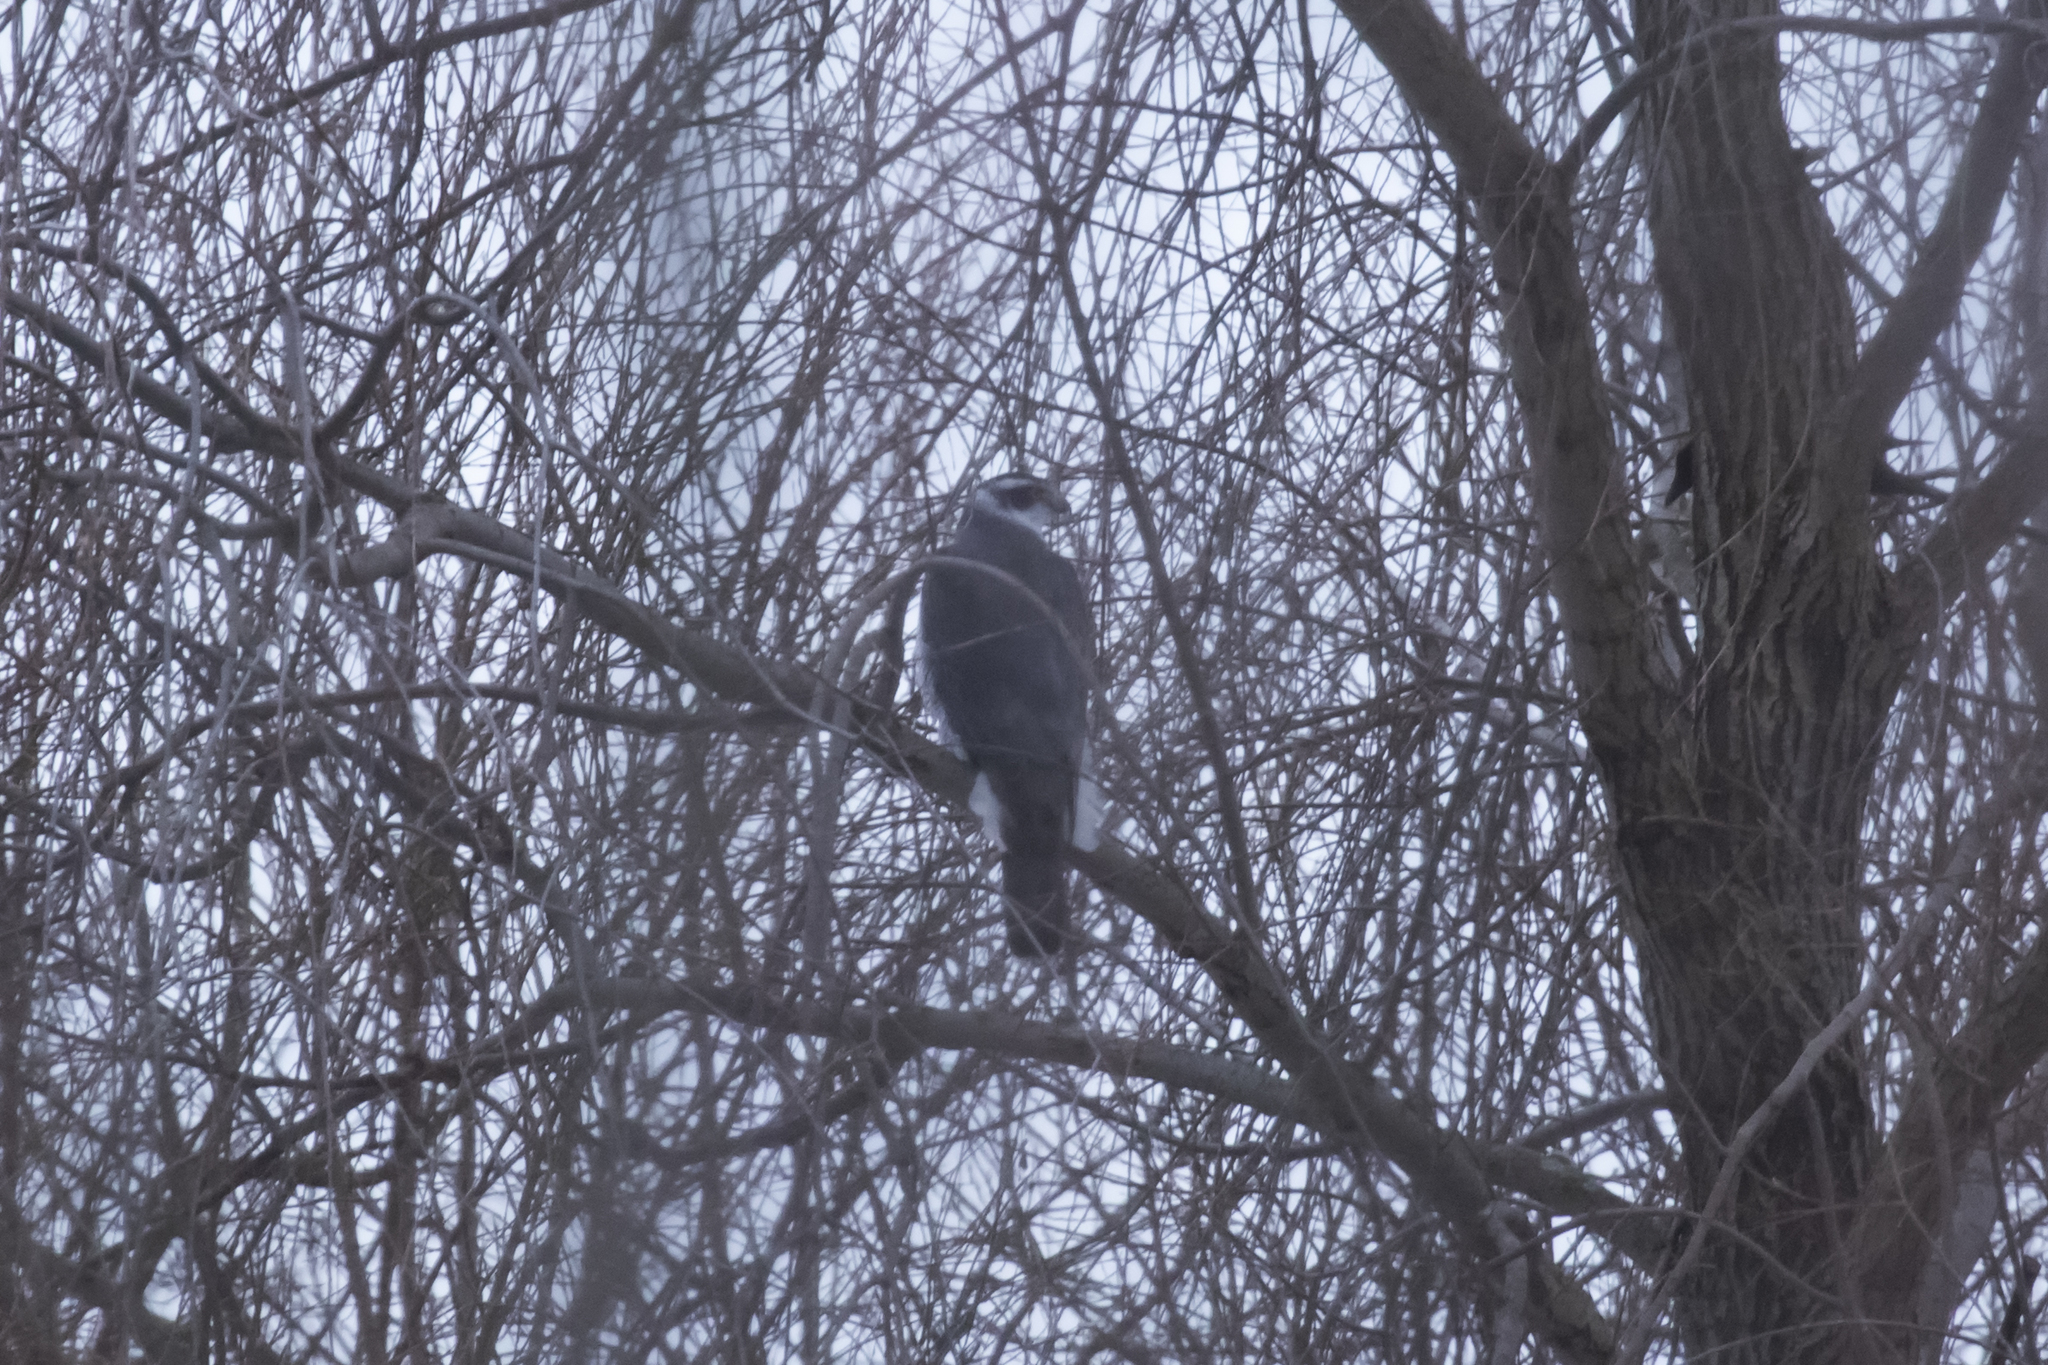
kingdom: Animalia
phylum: Chordata
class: Aves
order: Accipitriformes
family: Accipitridae
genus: Accipiter
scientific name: Accipiter gentilis
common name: Northern goshawk
